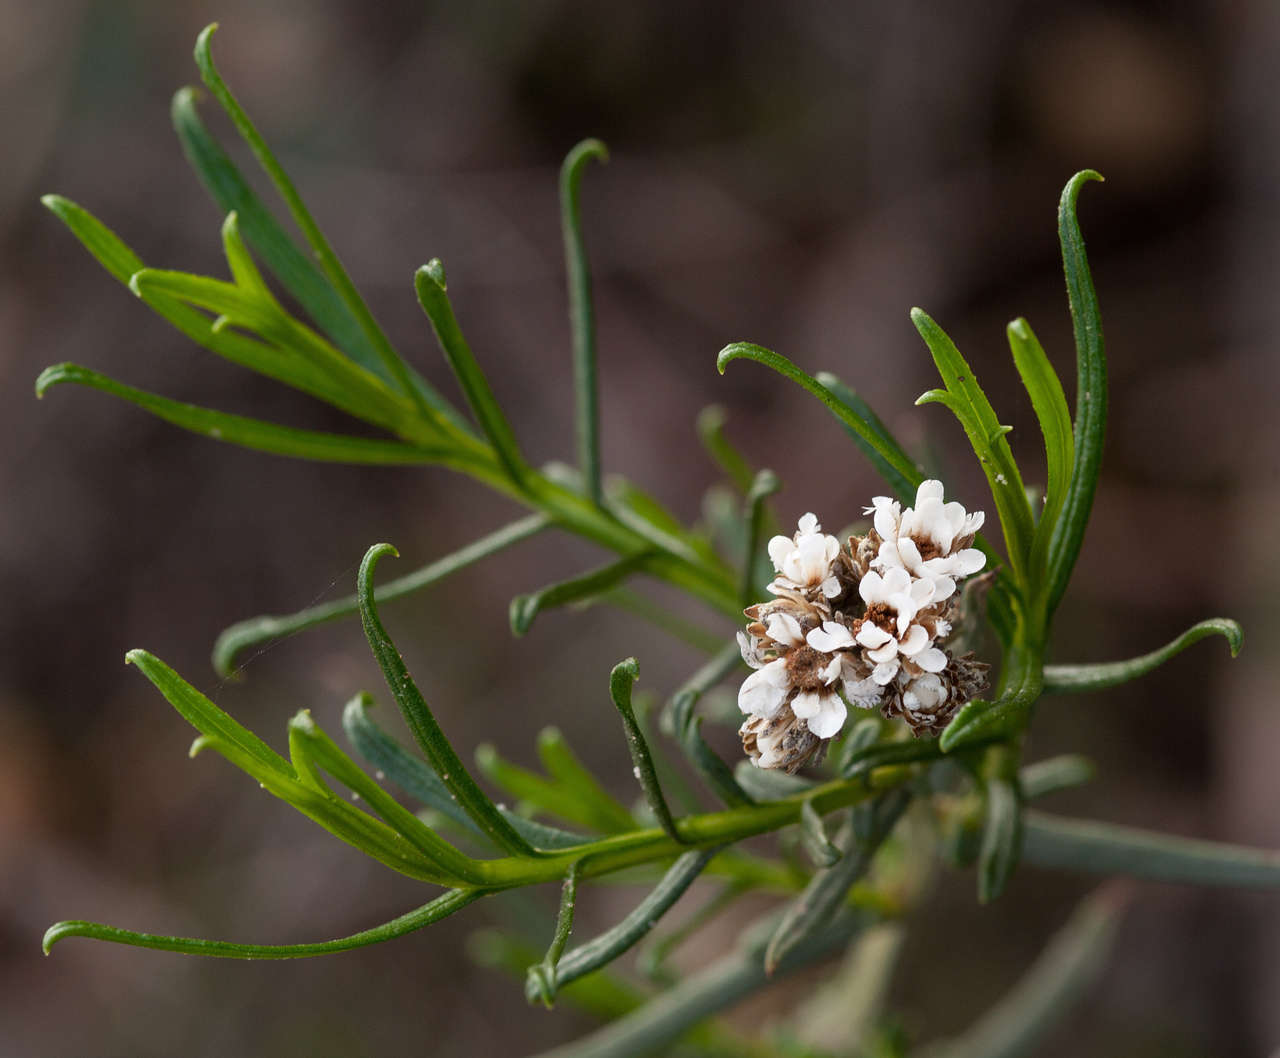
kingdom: Plantae
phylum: Tracheophyta
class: Magnoliopsida
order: Asterales
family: Asteraceae
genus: Ixodia
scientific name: Ixodia achillaeoides
